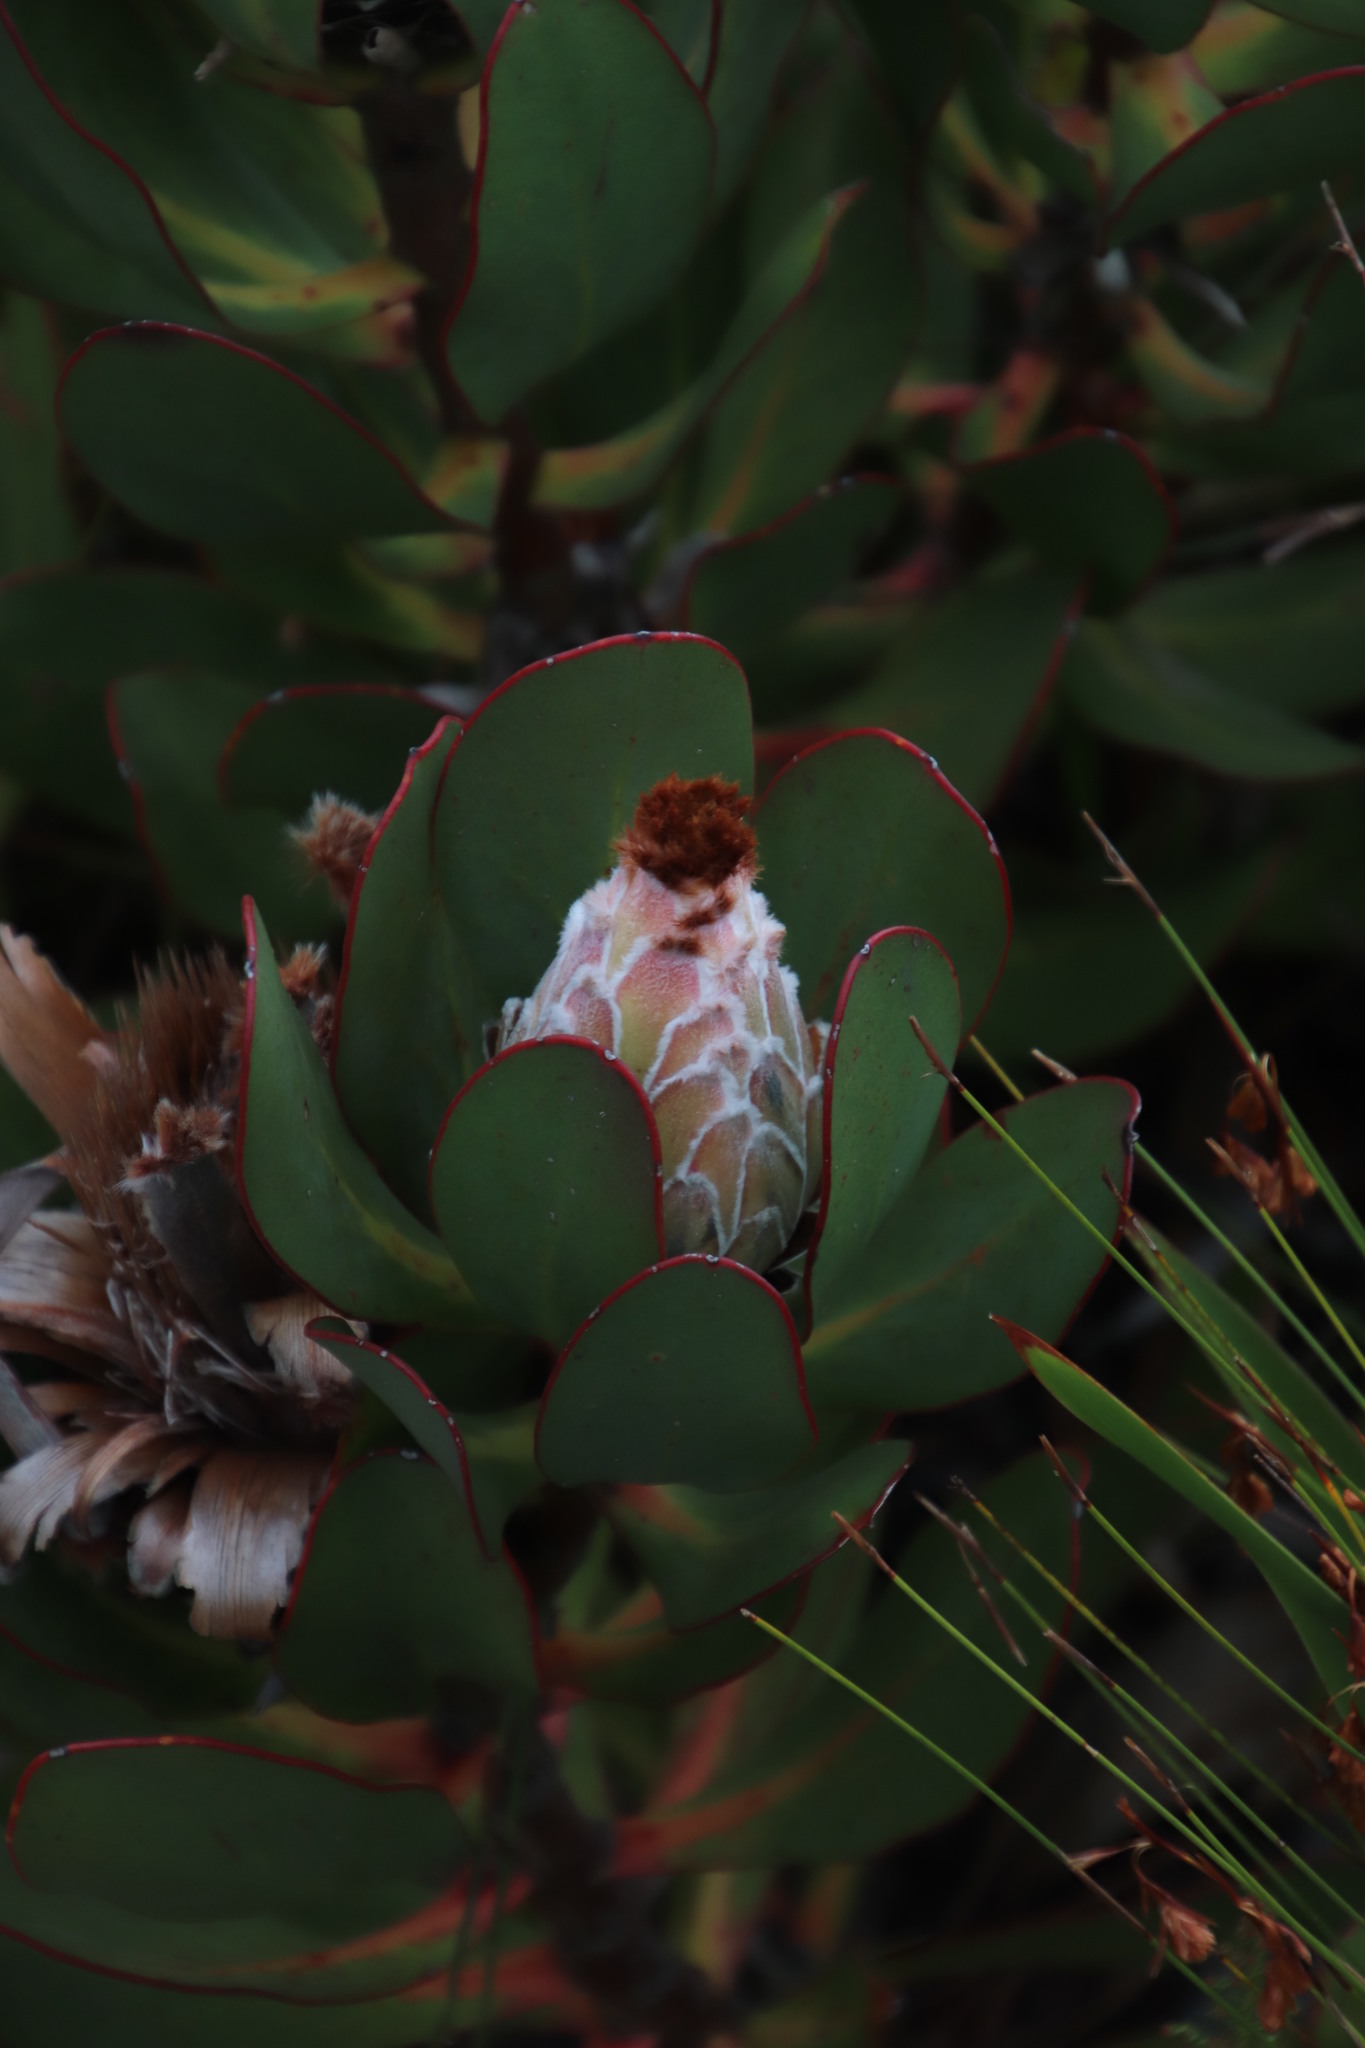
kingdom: Plantae
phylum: Tracheophyta
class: Magnoliopsida
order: Proteales
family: Proteaceae
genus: Protea
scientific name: Protea speciosa
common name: Brown-beard sugarbush
